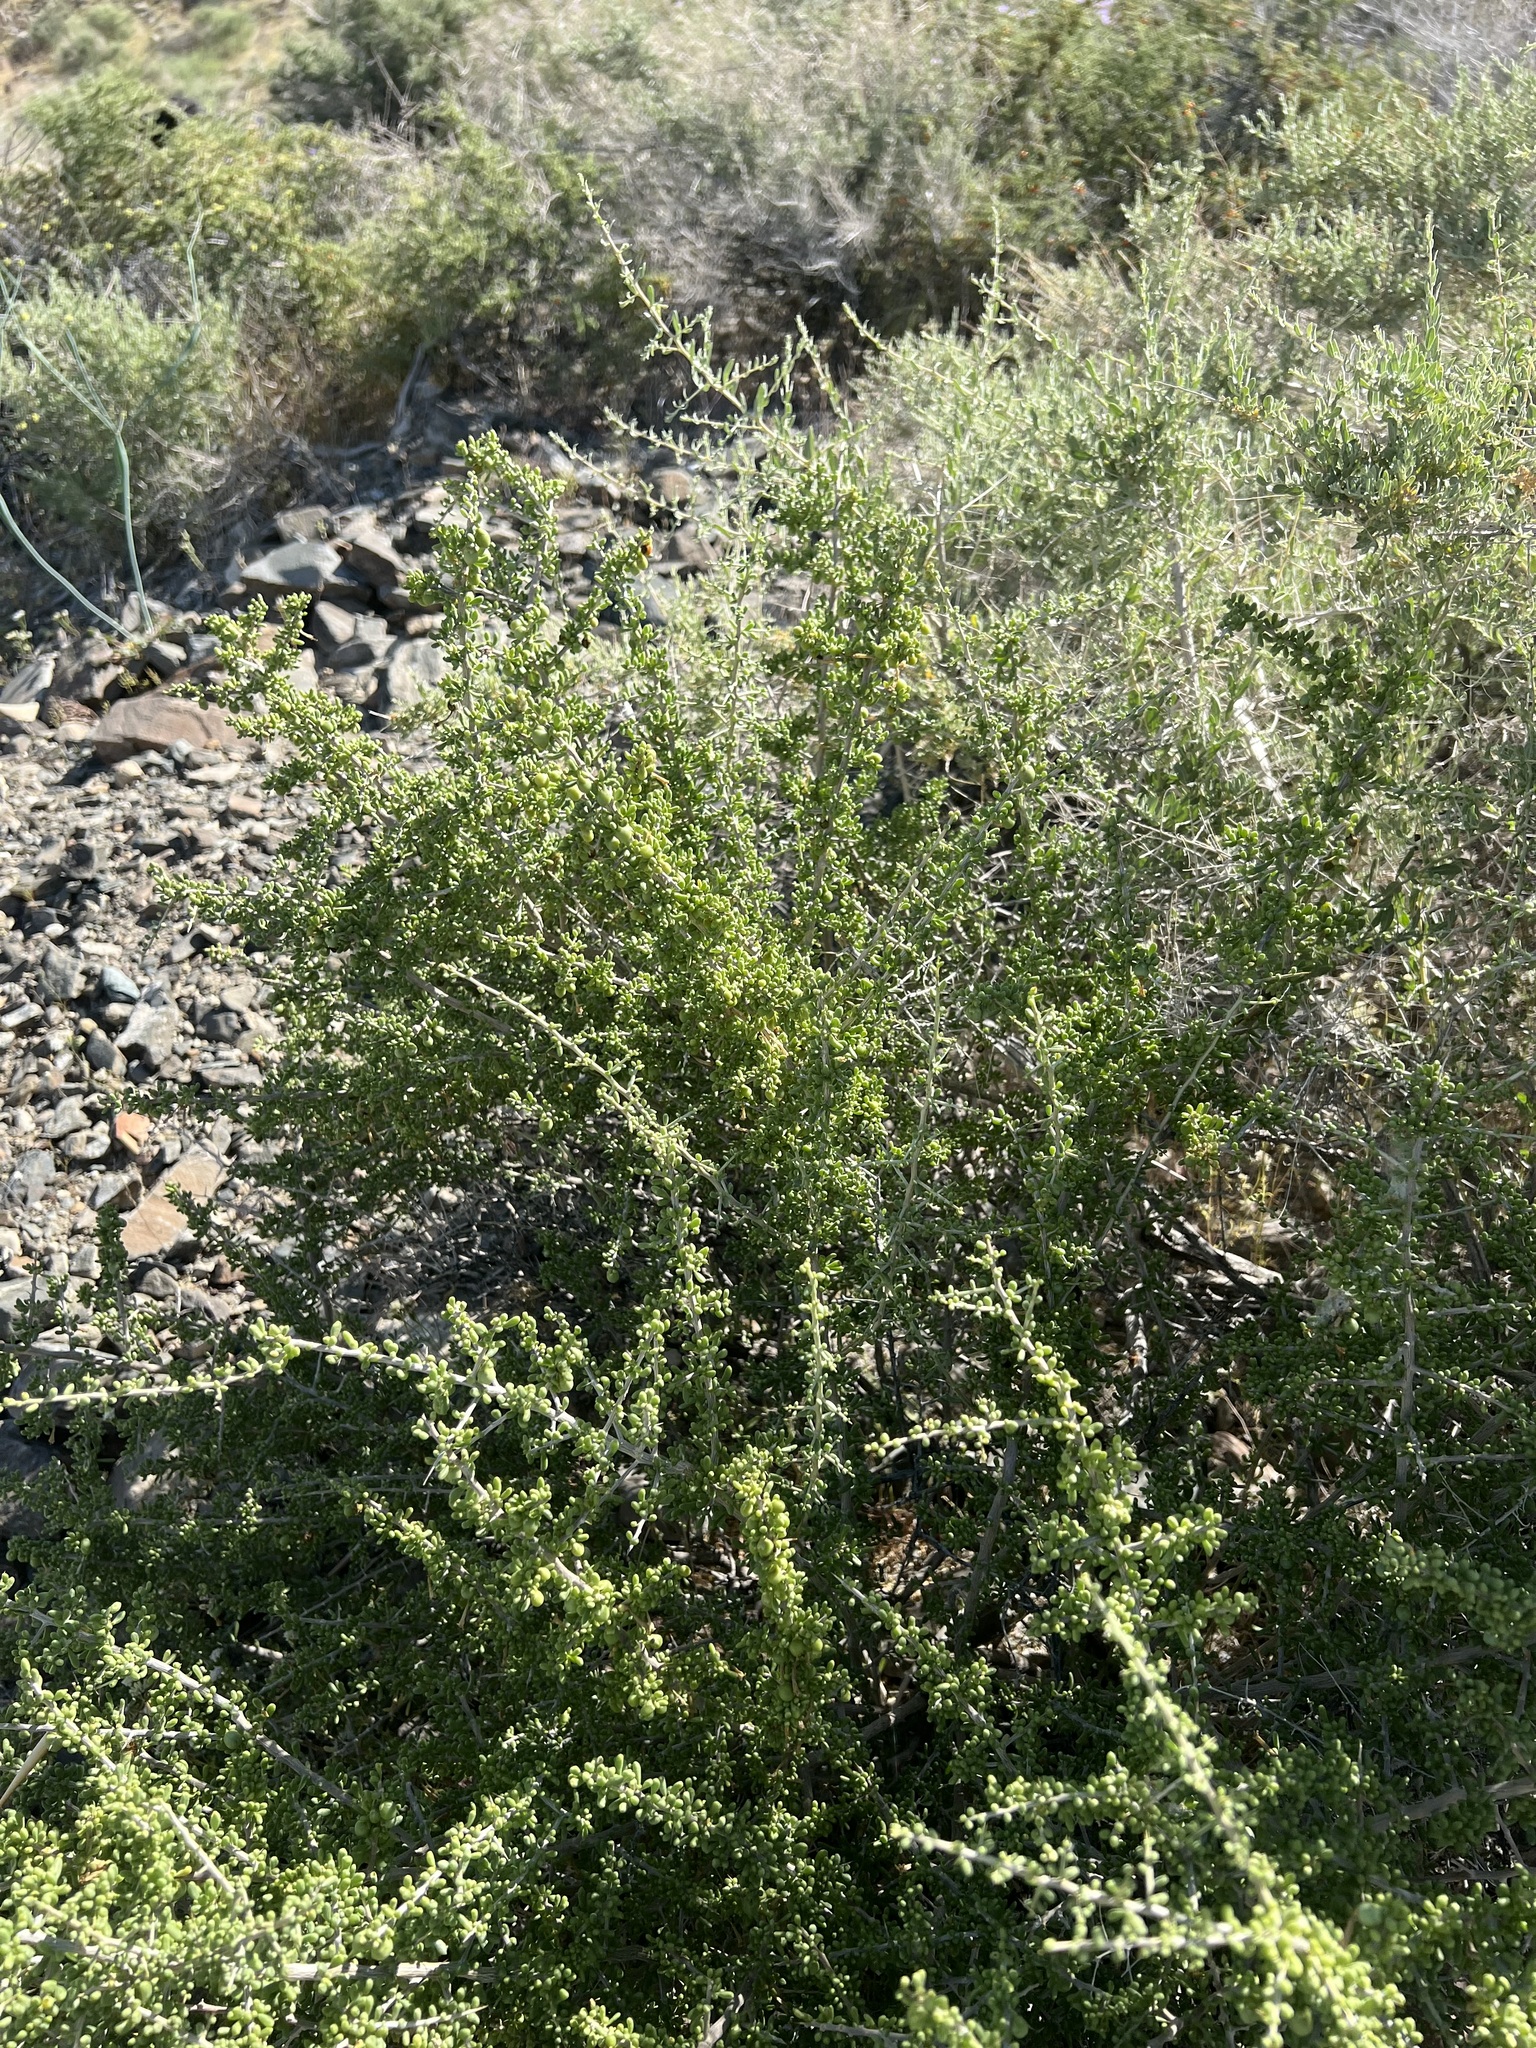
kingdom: Plantae
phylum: Tracheophyta
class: Magnoliopsida
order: Solanales
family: Solanaceae
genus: Lycium
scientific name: Lycium andersonii
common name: Water-jacket
